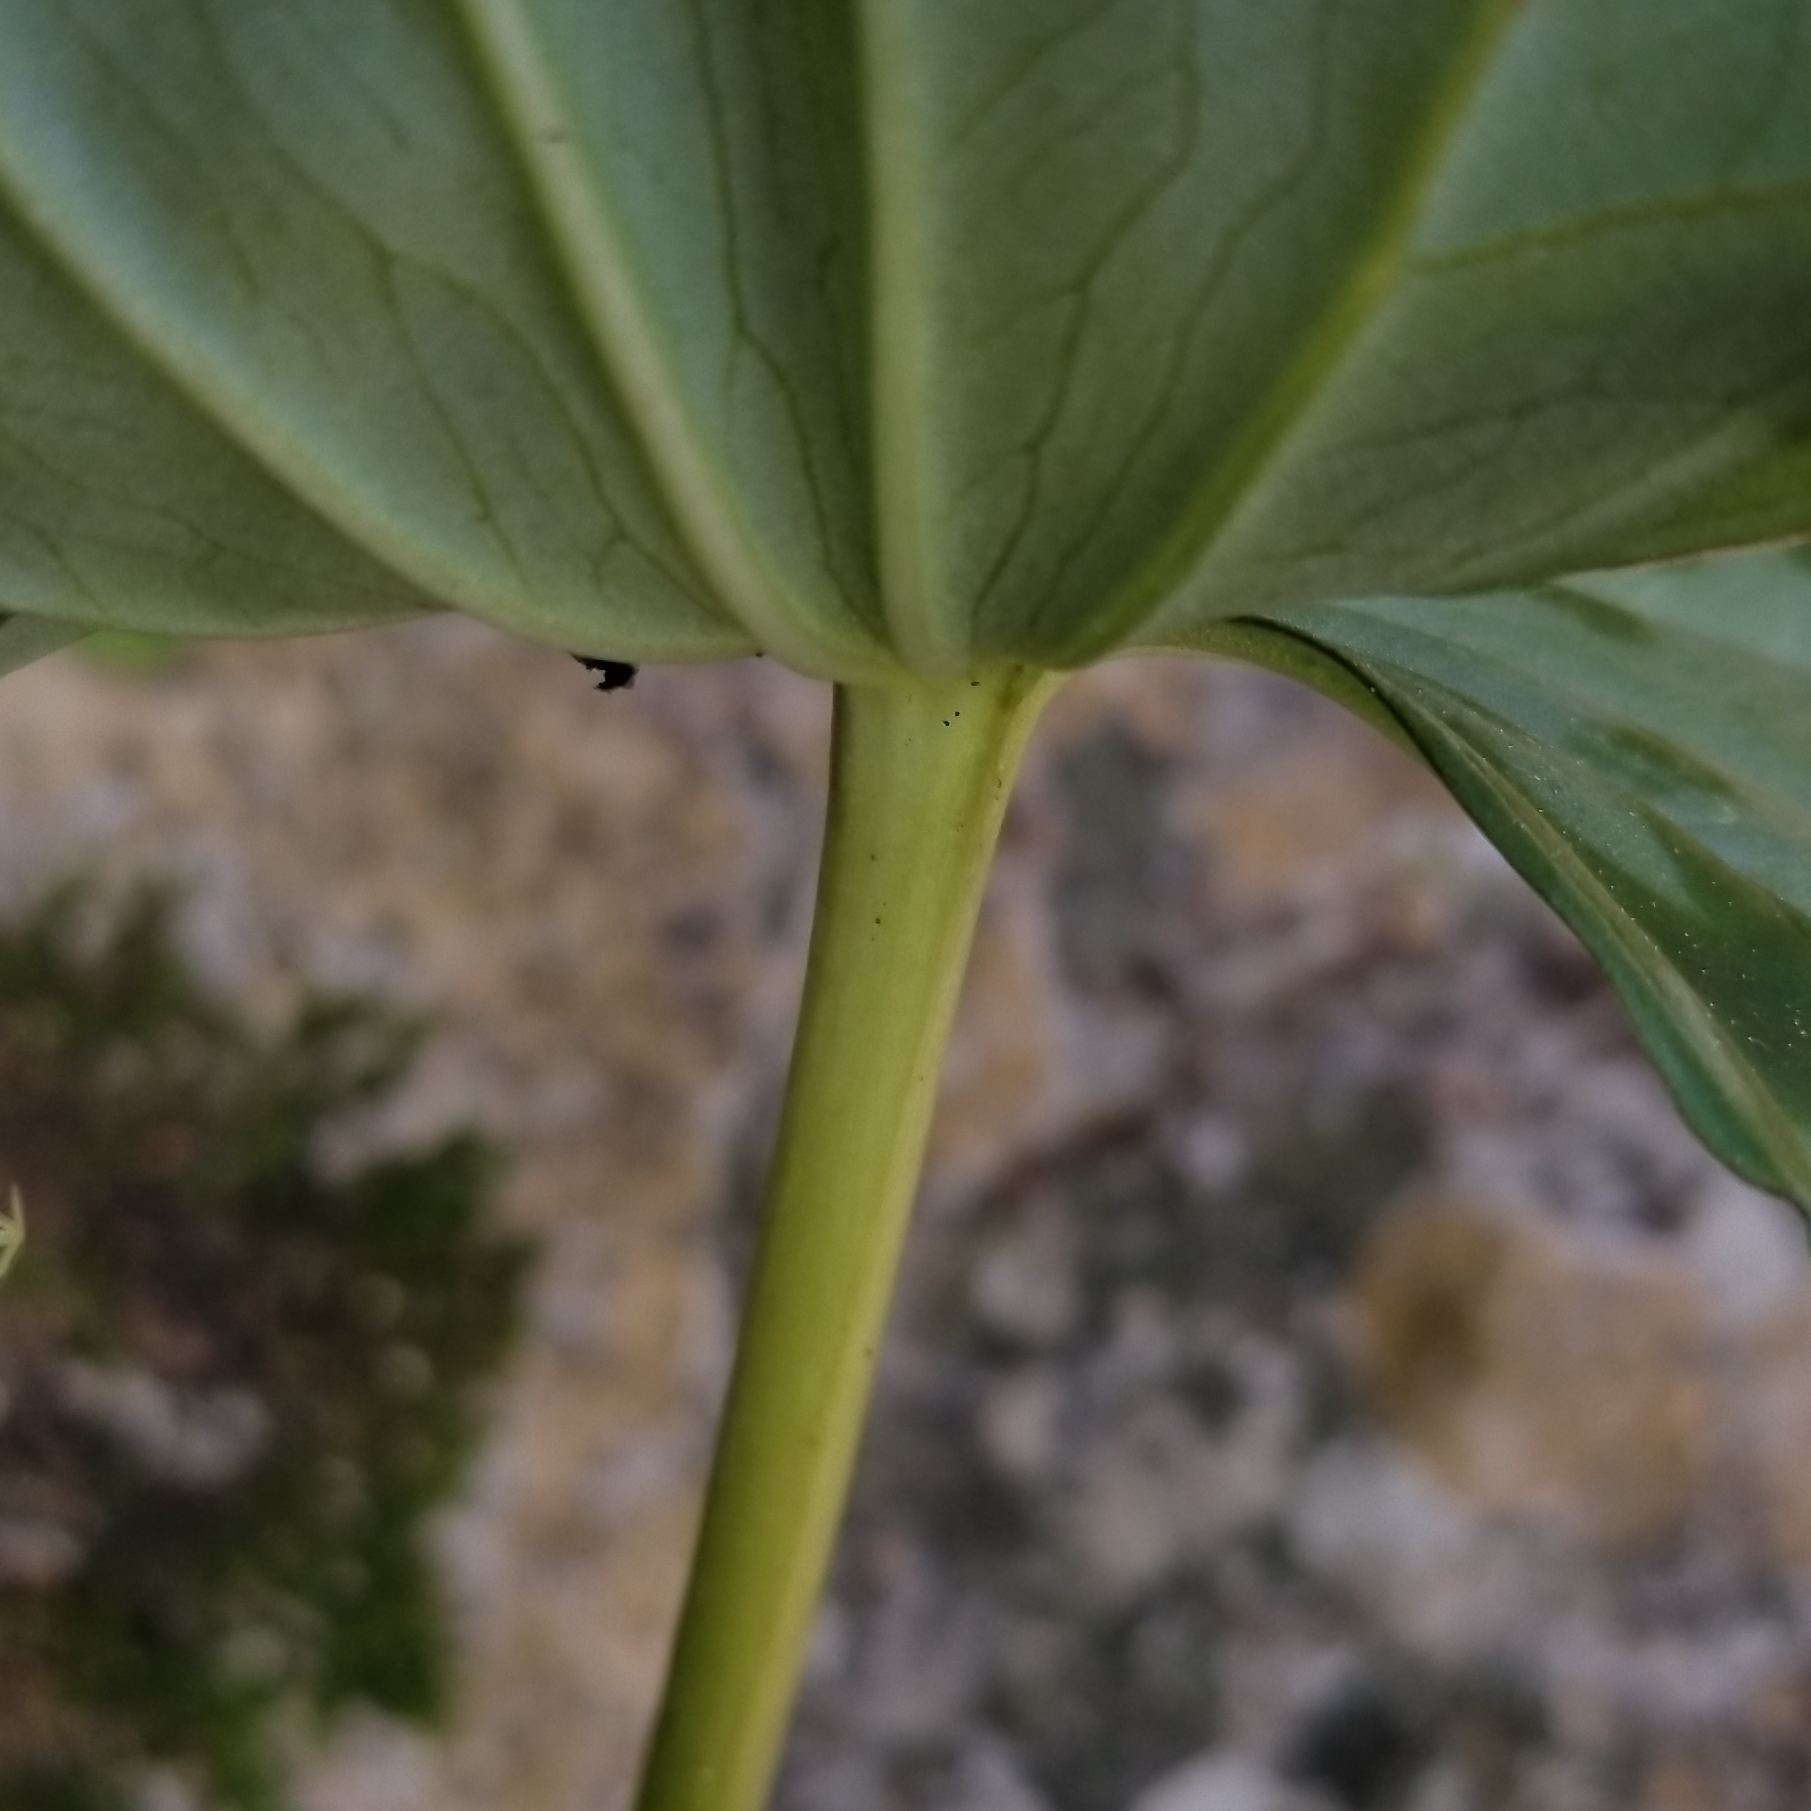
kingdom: Plantae
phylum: Tracheophyta
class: Liliopsida
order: Liliales
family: Melanthiaceae
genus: Trillium
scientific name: Trillium cuneatum
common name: Cuneate trillium
